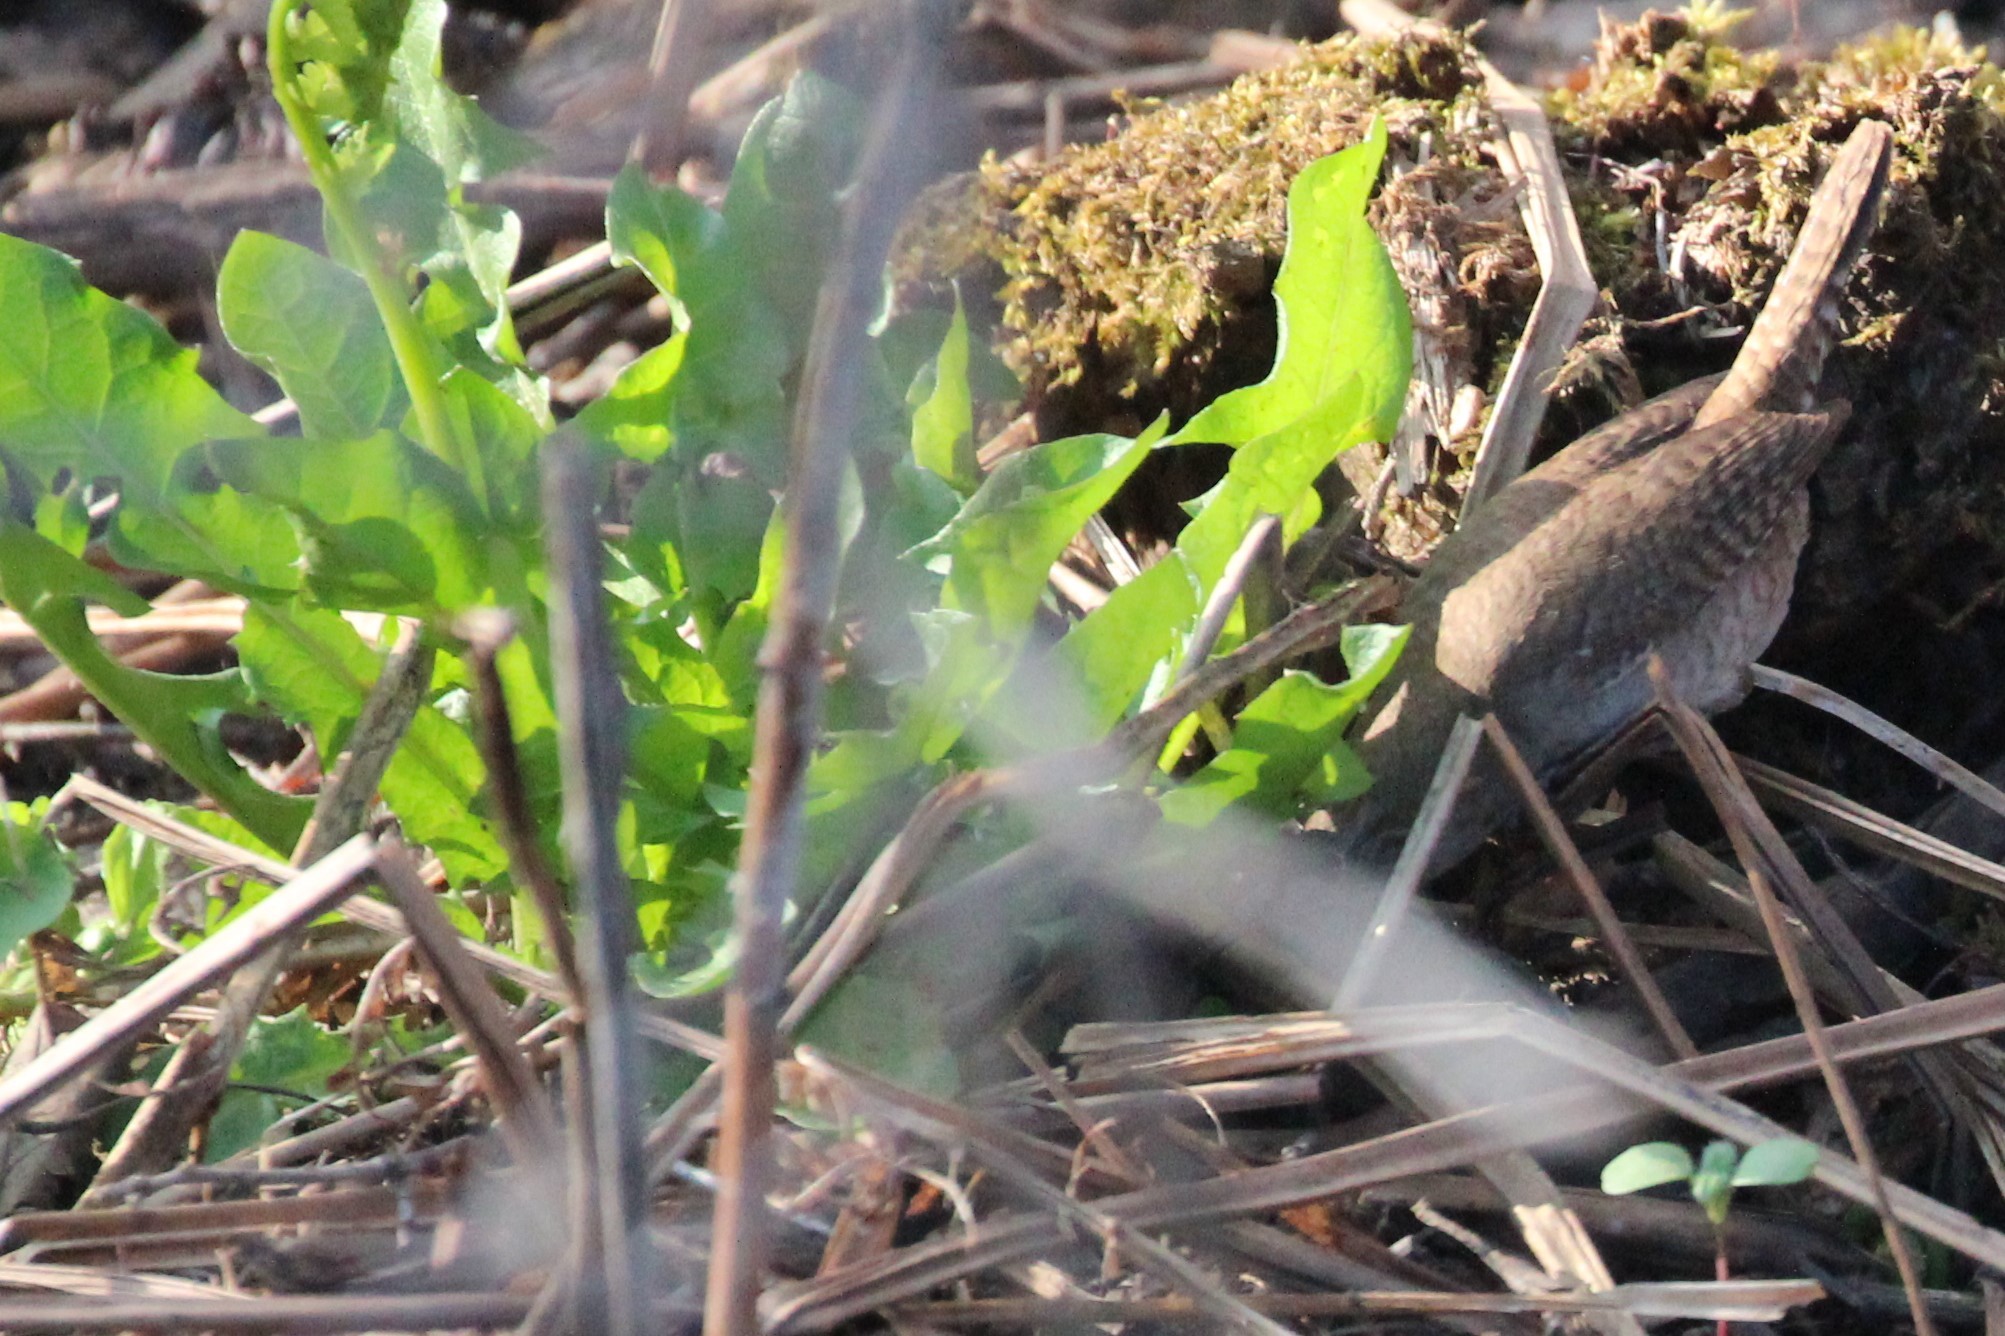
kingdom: Animalia
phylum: Chordata
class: Aves
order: Passeriformes
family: Troglodytidae
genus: Troglodytes
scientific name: Troglodytes aedon
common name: House wren
